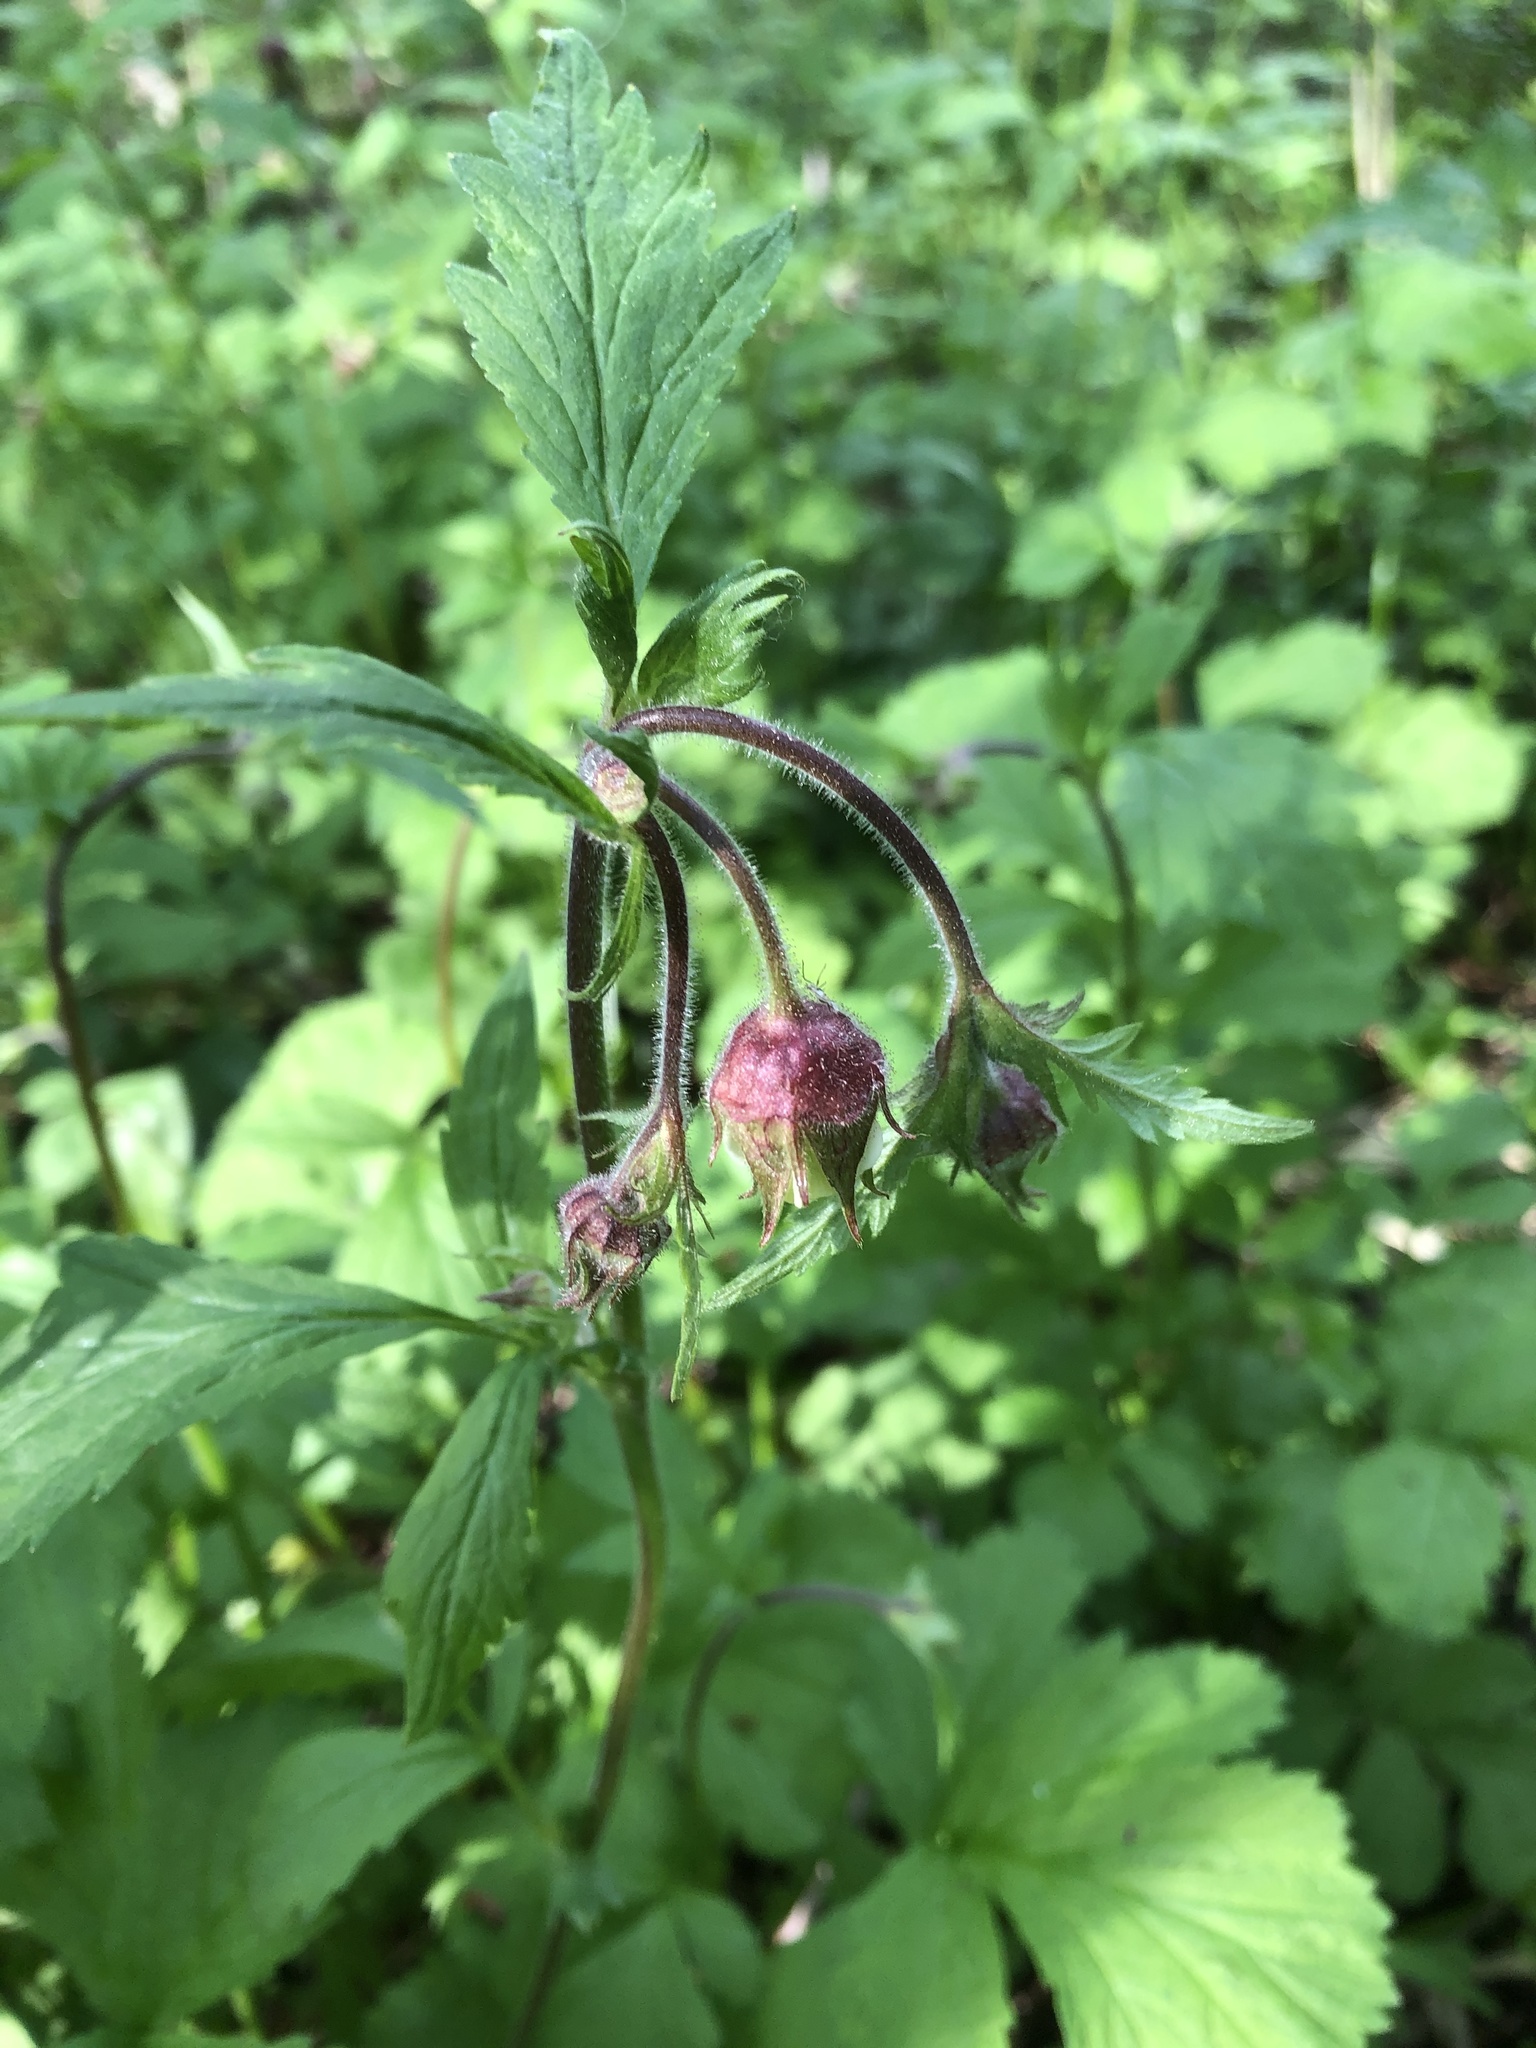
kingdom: Plantae
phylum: Tracheophyta
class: Magnoliopsida
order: Rosales
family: Rosaceae
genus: Geum
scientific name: Geum rivale
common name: Water avens
